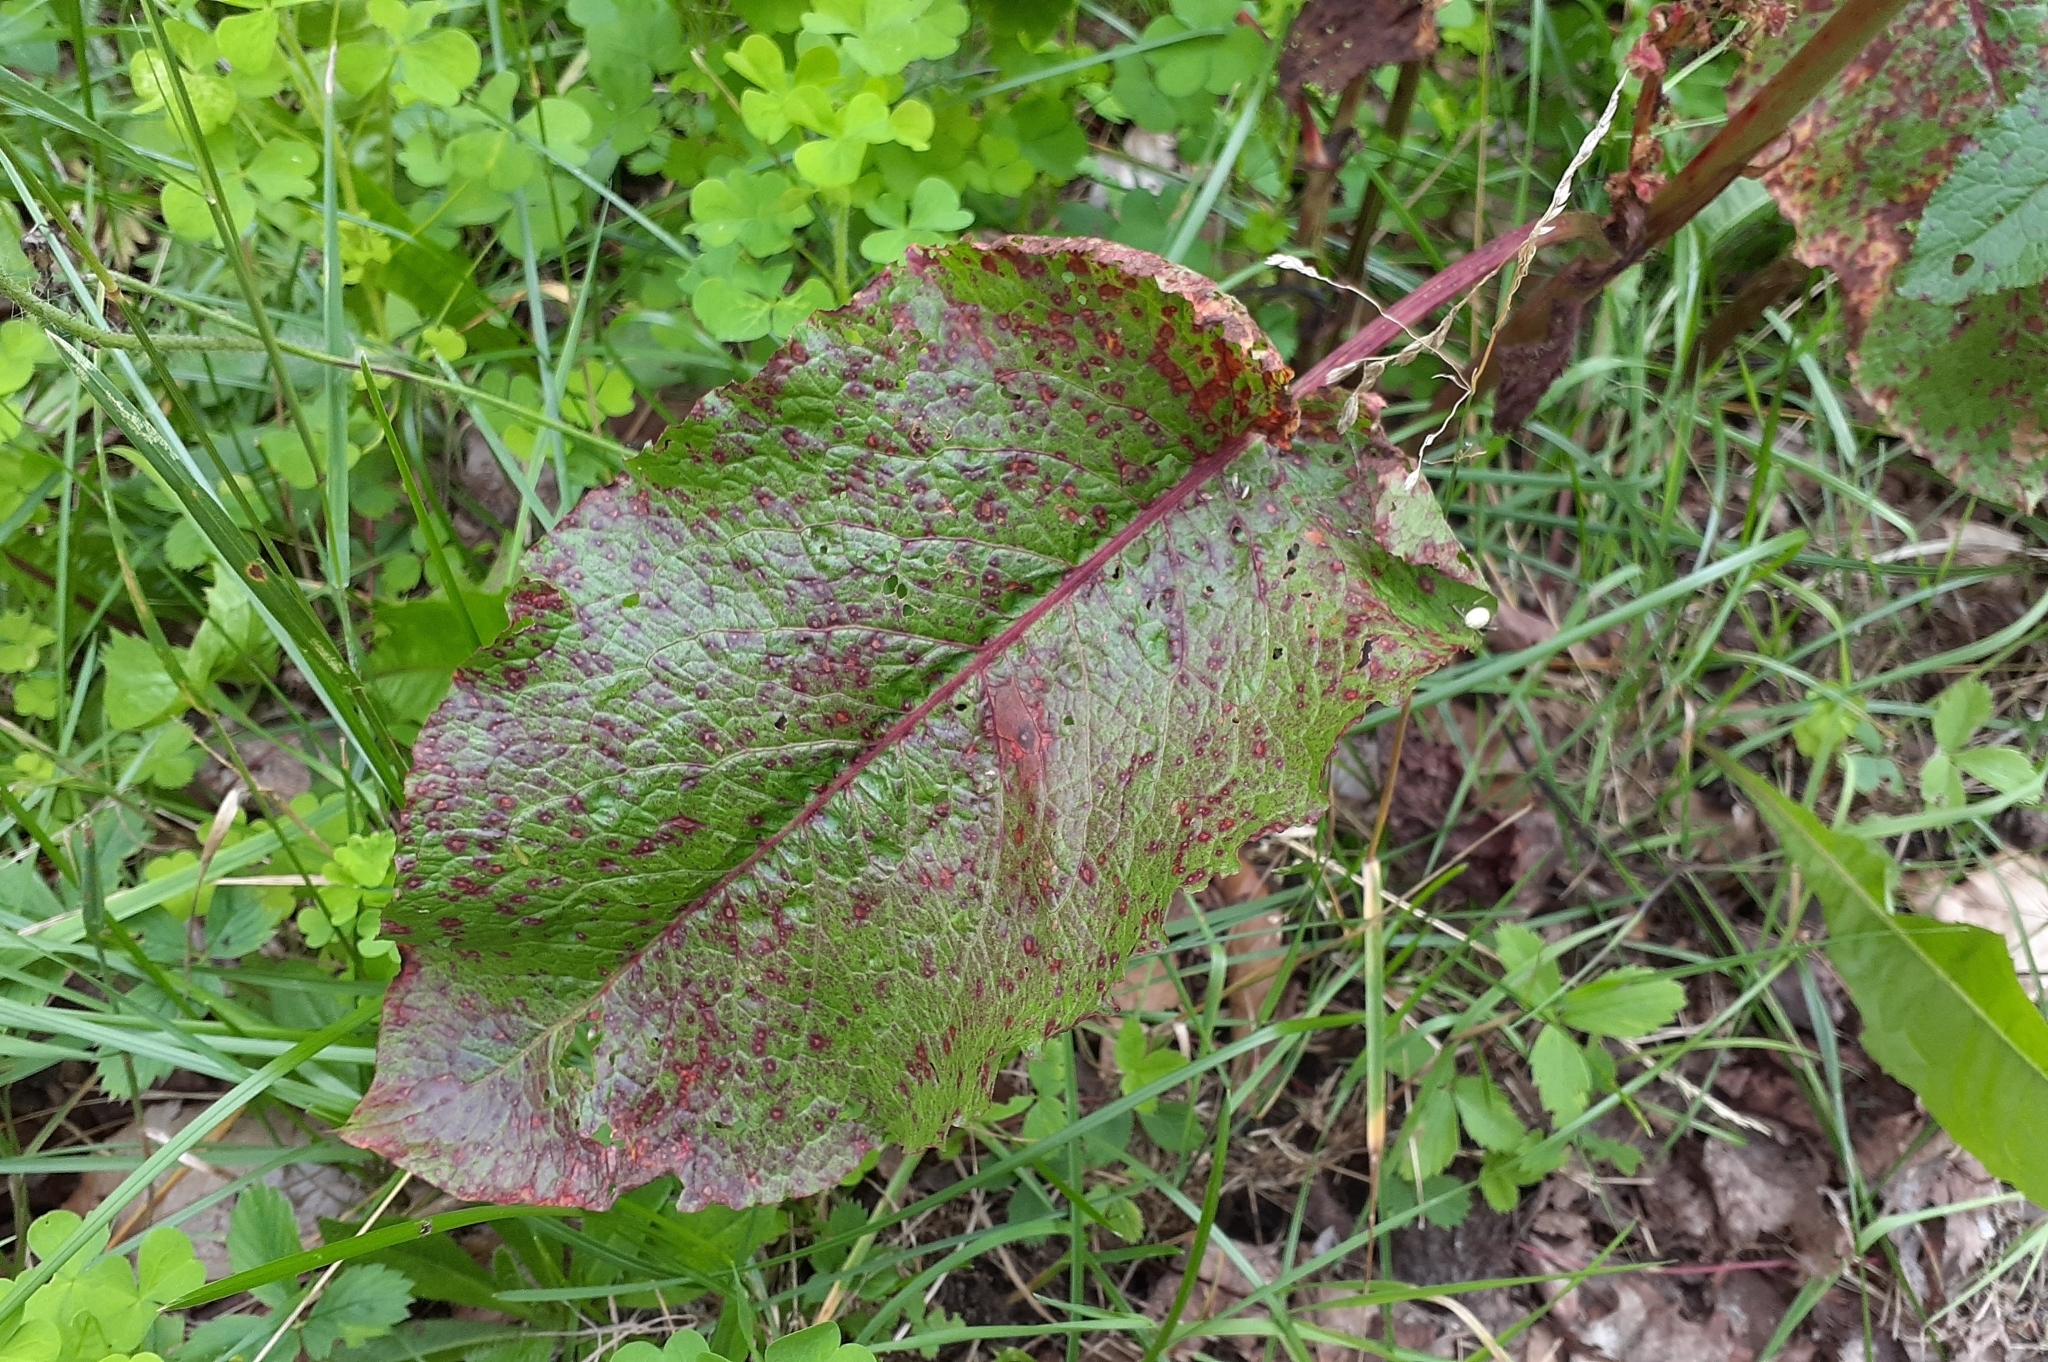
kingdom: Plantae
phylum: Tracheophyta
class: Magnoliopsida
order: Caryophyllales
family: Polygonaceae
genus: Rumex
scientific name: Rumex obtusifolius
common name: Bitter dock
